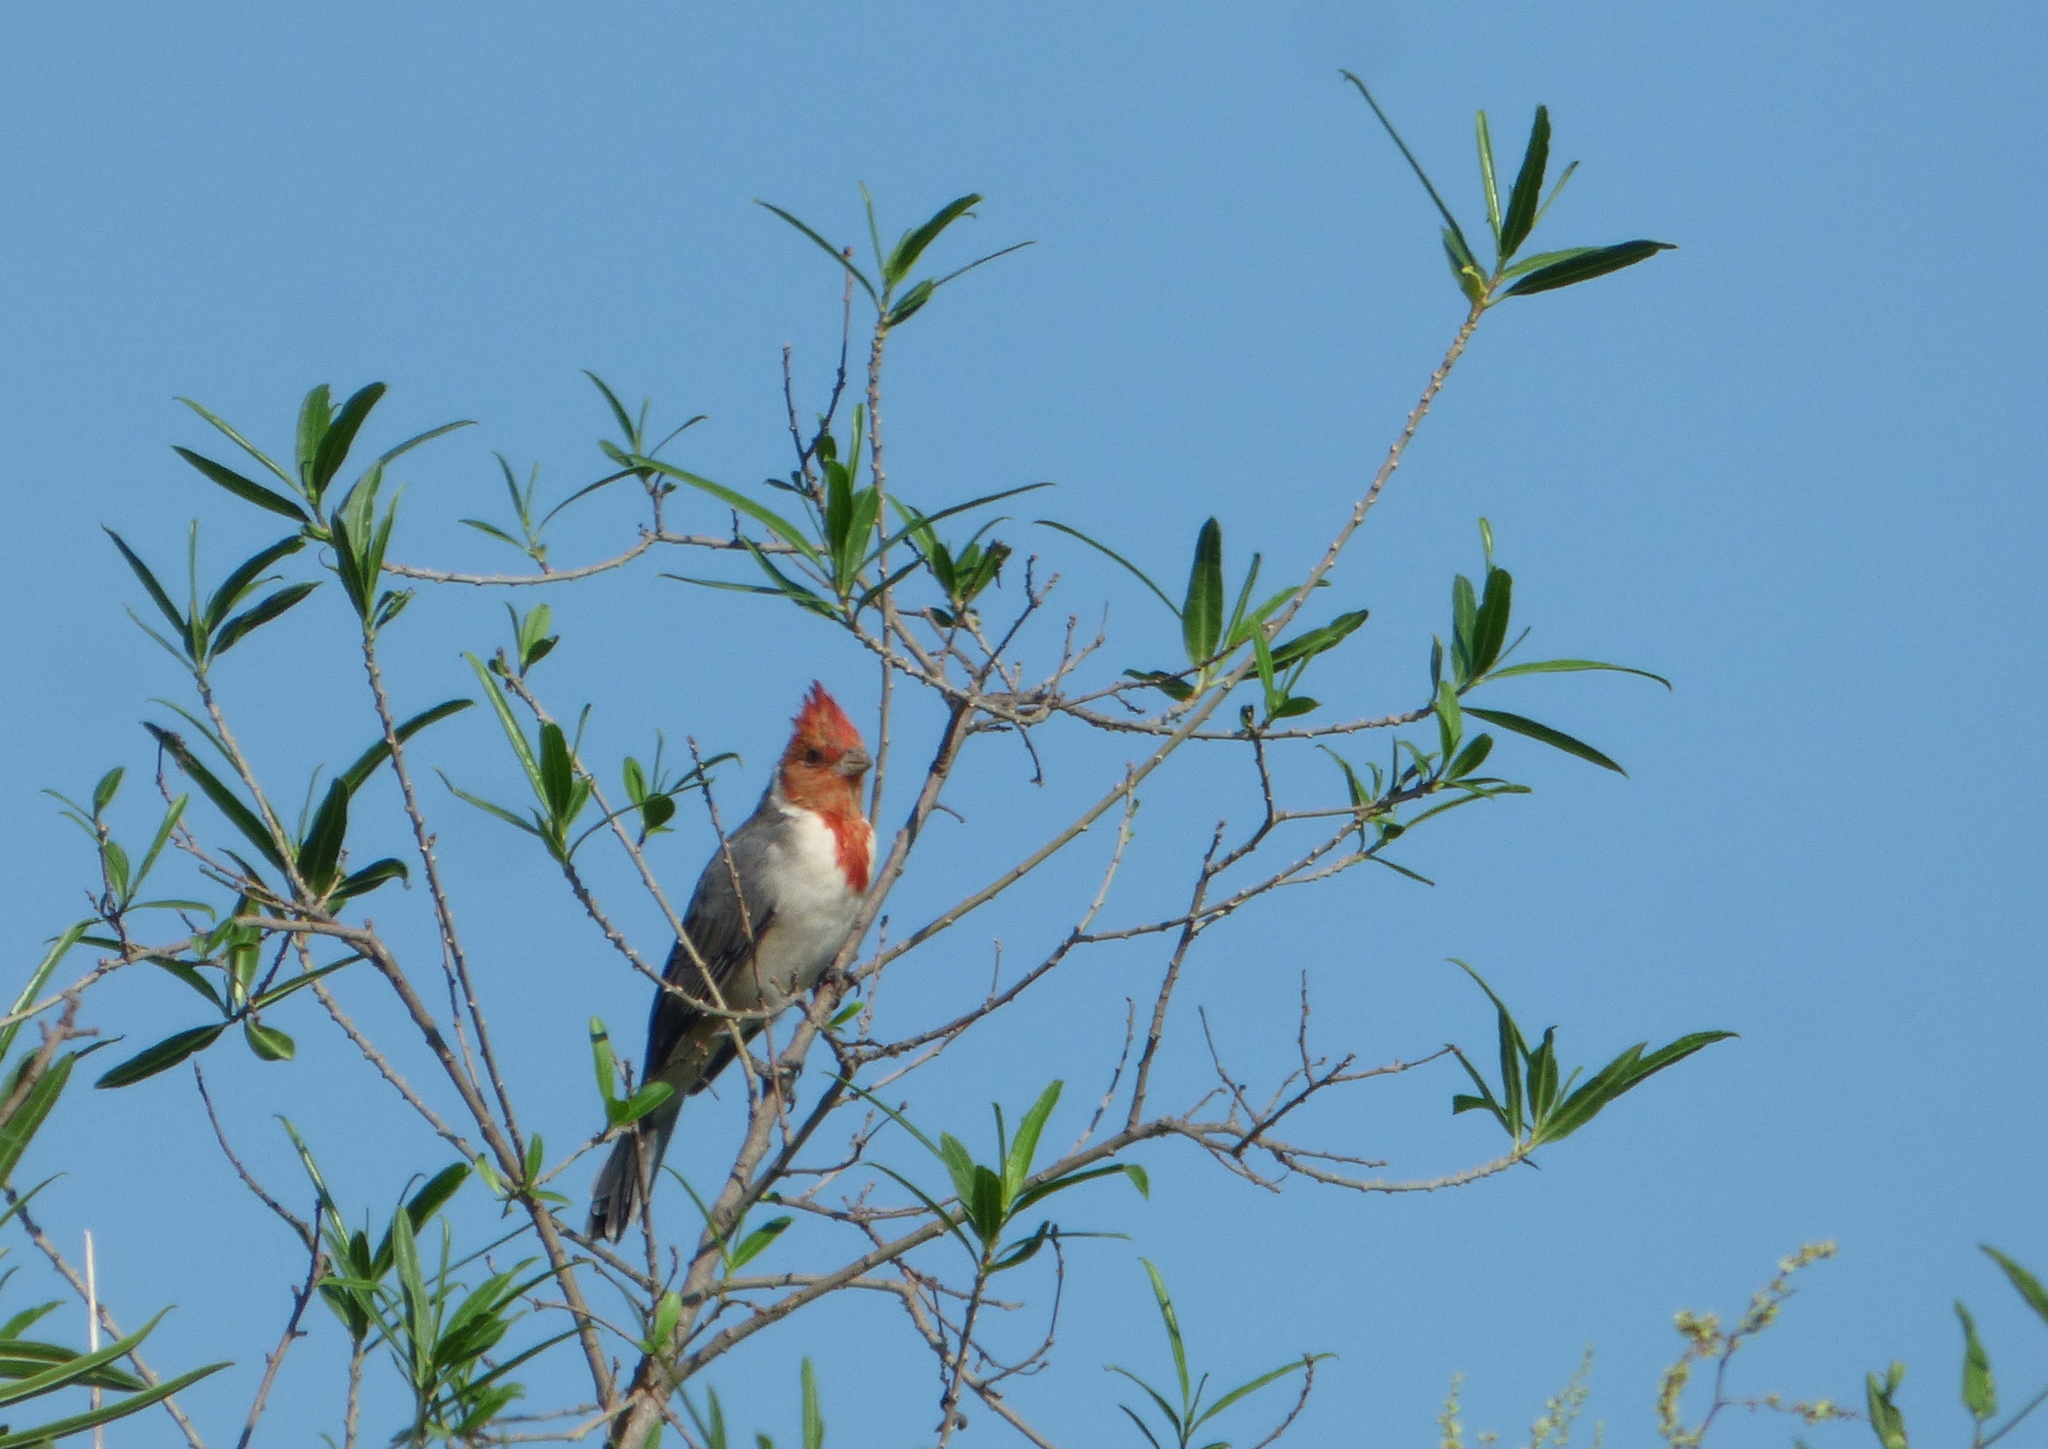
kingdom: Animalia
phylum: Chordata
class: Aves
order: Passeriformes
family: Thraupidae
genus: Paroaria
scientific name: Paroaria coronata
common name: Red-crested cardinal
